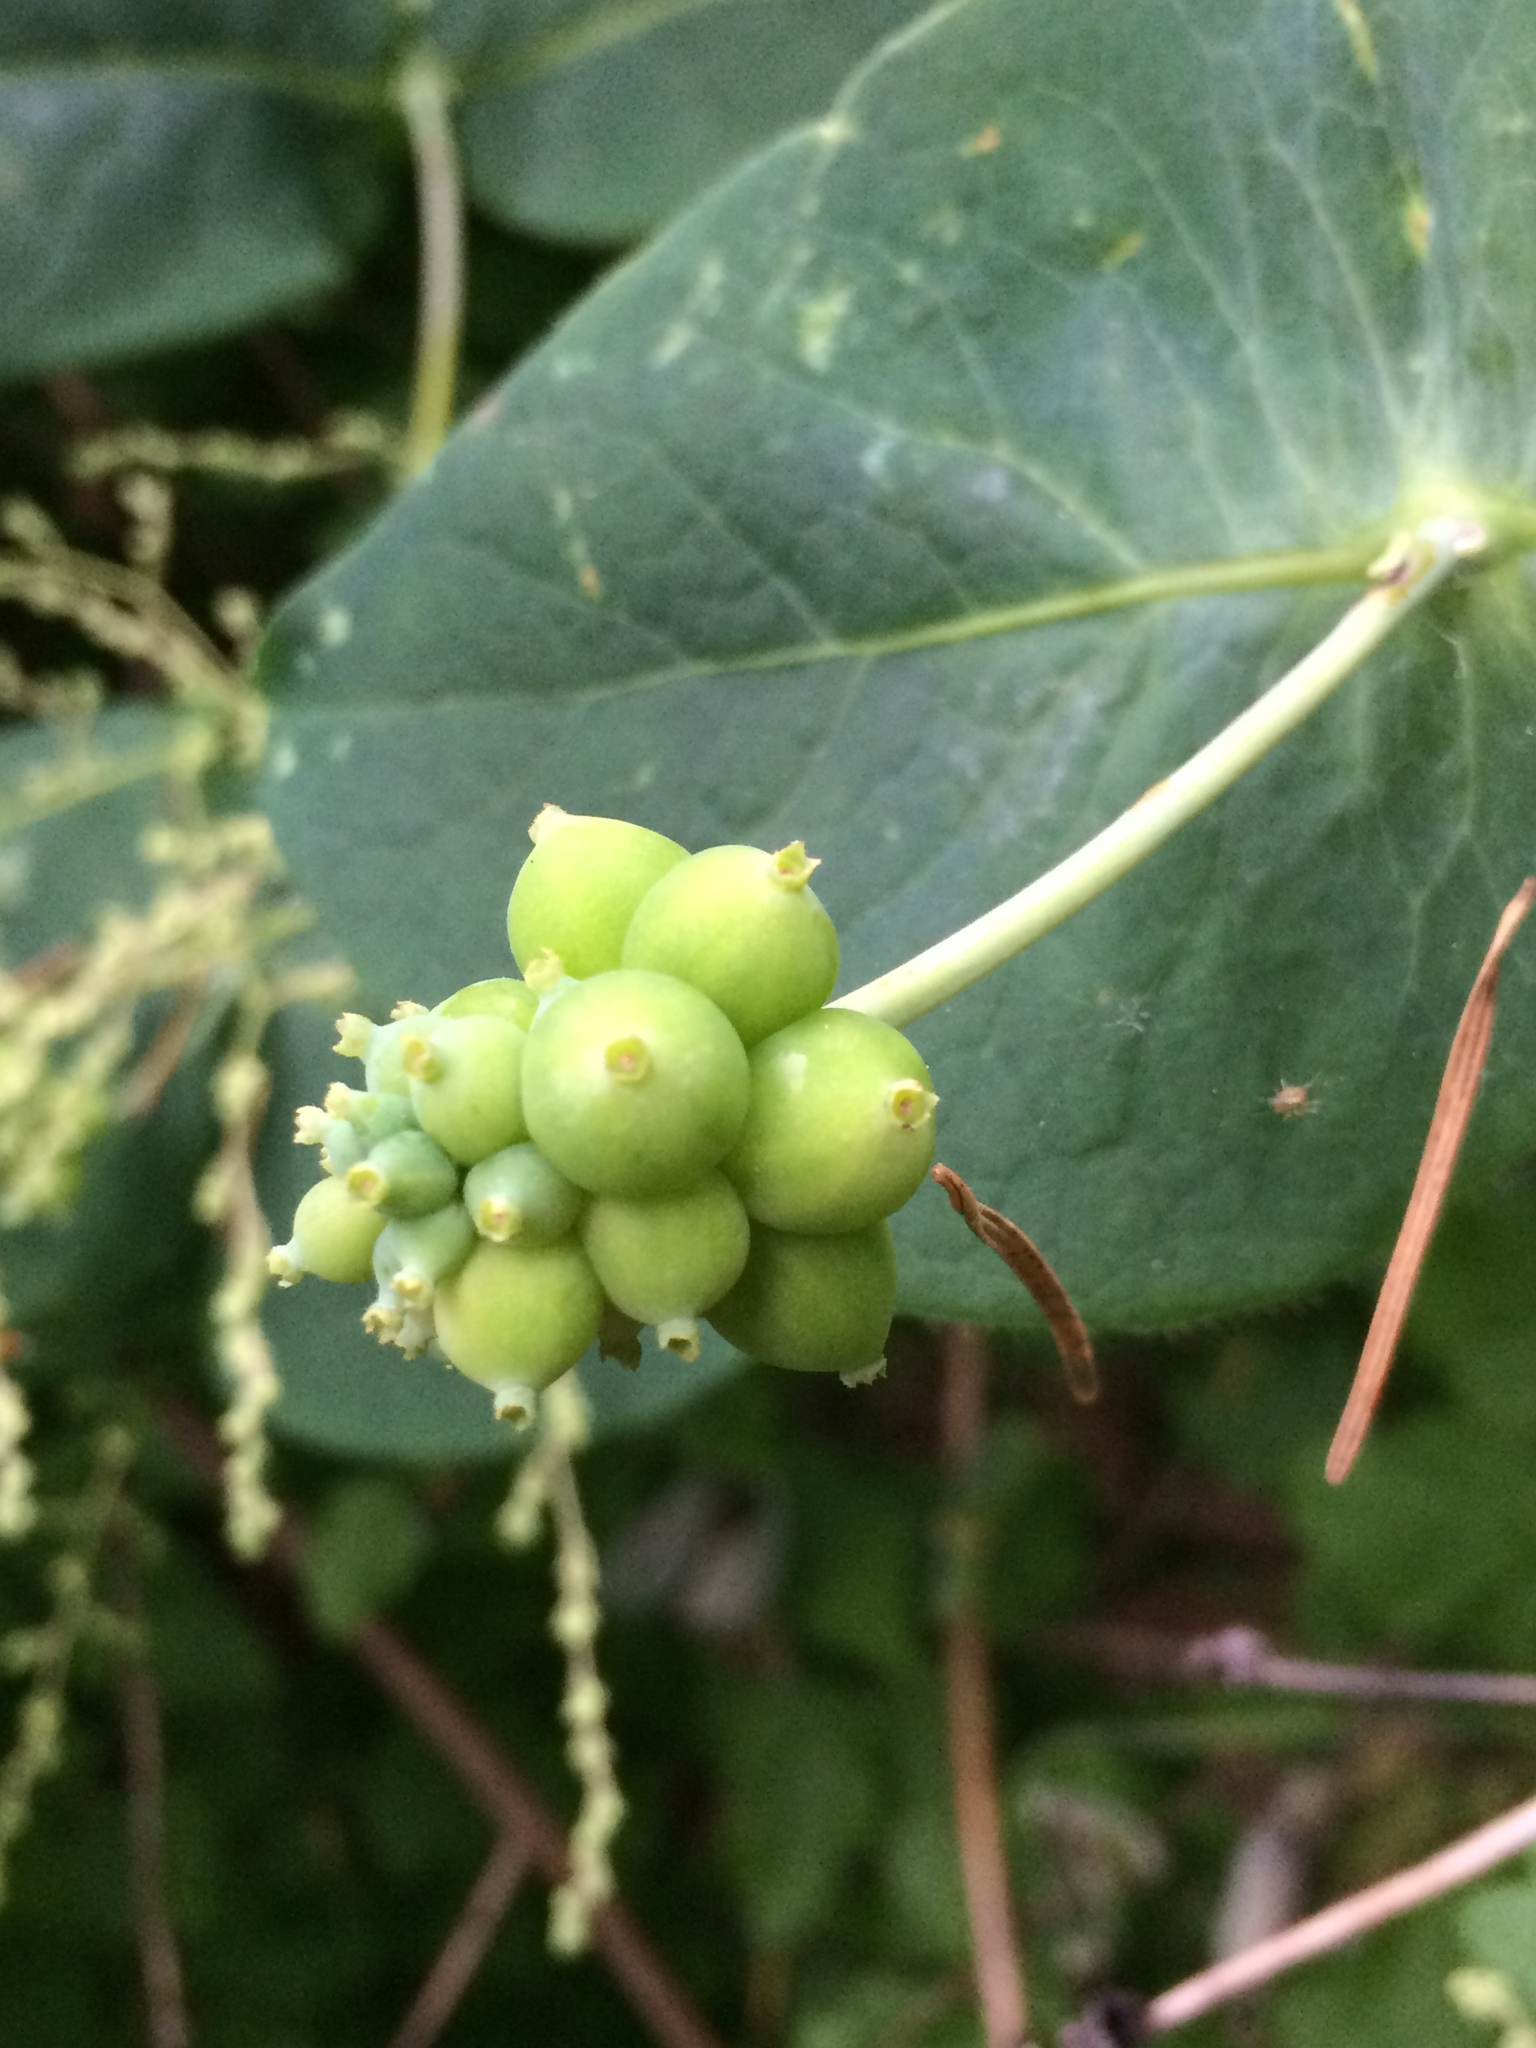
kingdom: Plantae
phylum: Tracheophyta
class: Magnoliopsida
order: Dipsacales
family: Caprifoliaceae
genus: Lonicera
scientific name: Lonicera ciliosa
